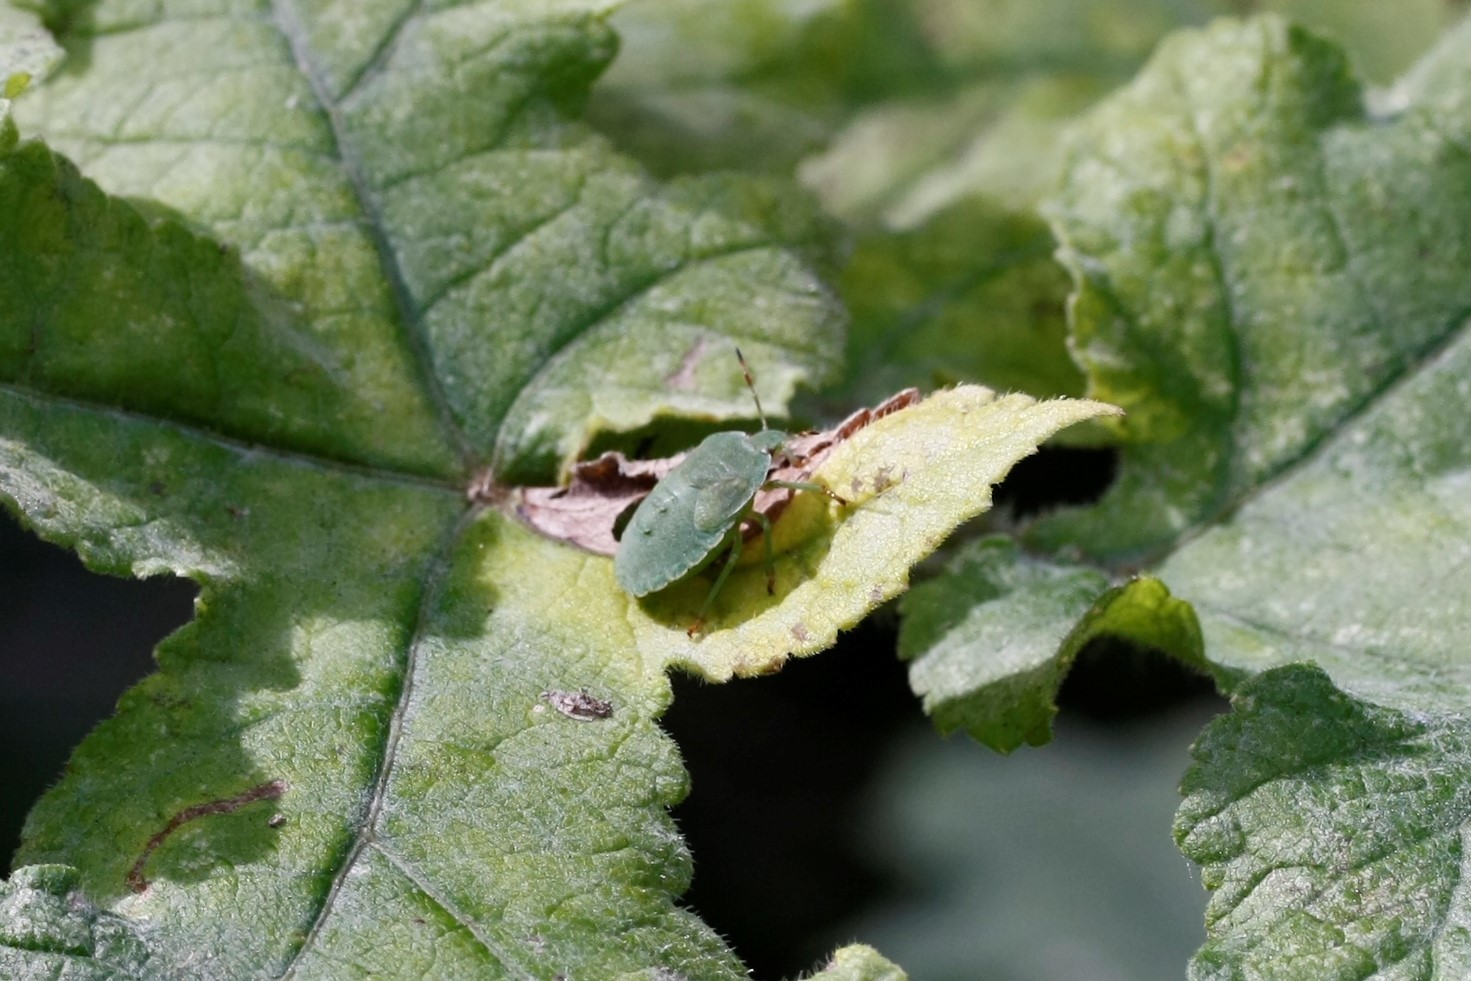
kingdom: Animalia
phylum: Arthropoda
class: Insecta
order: Hemiptera
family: Pentatomidae
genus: Palomena
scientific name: Palomena prasina
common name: Green shieldbug
